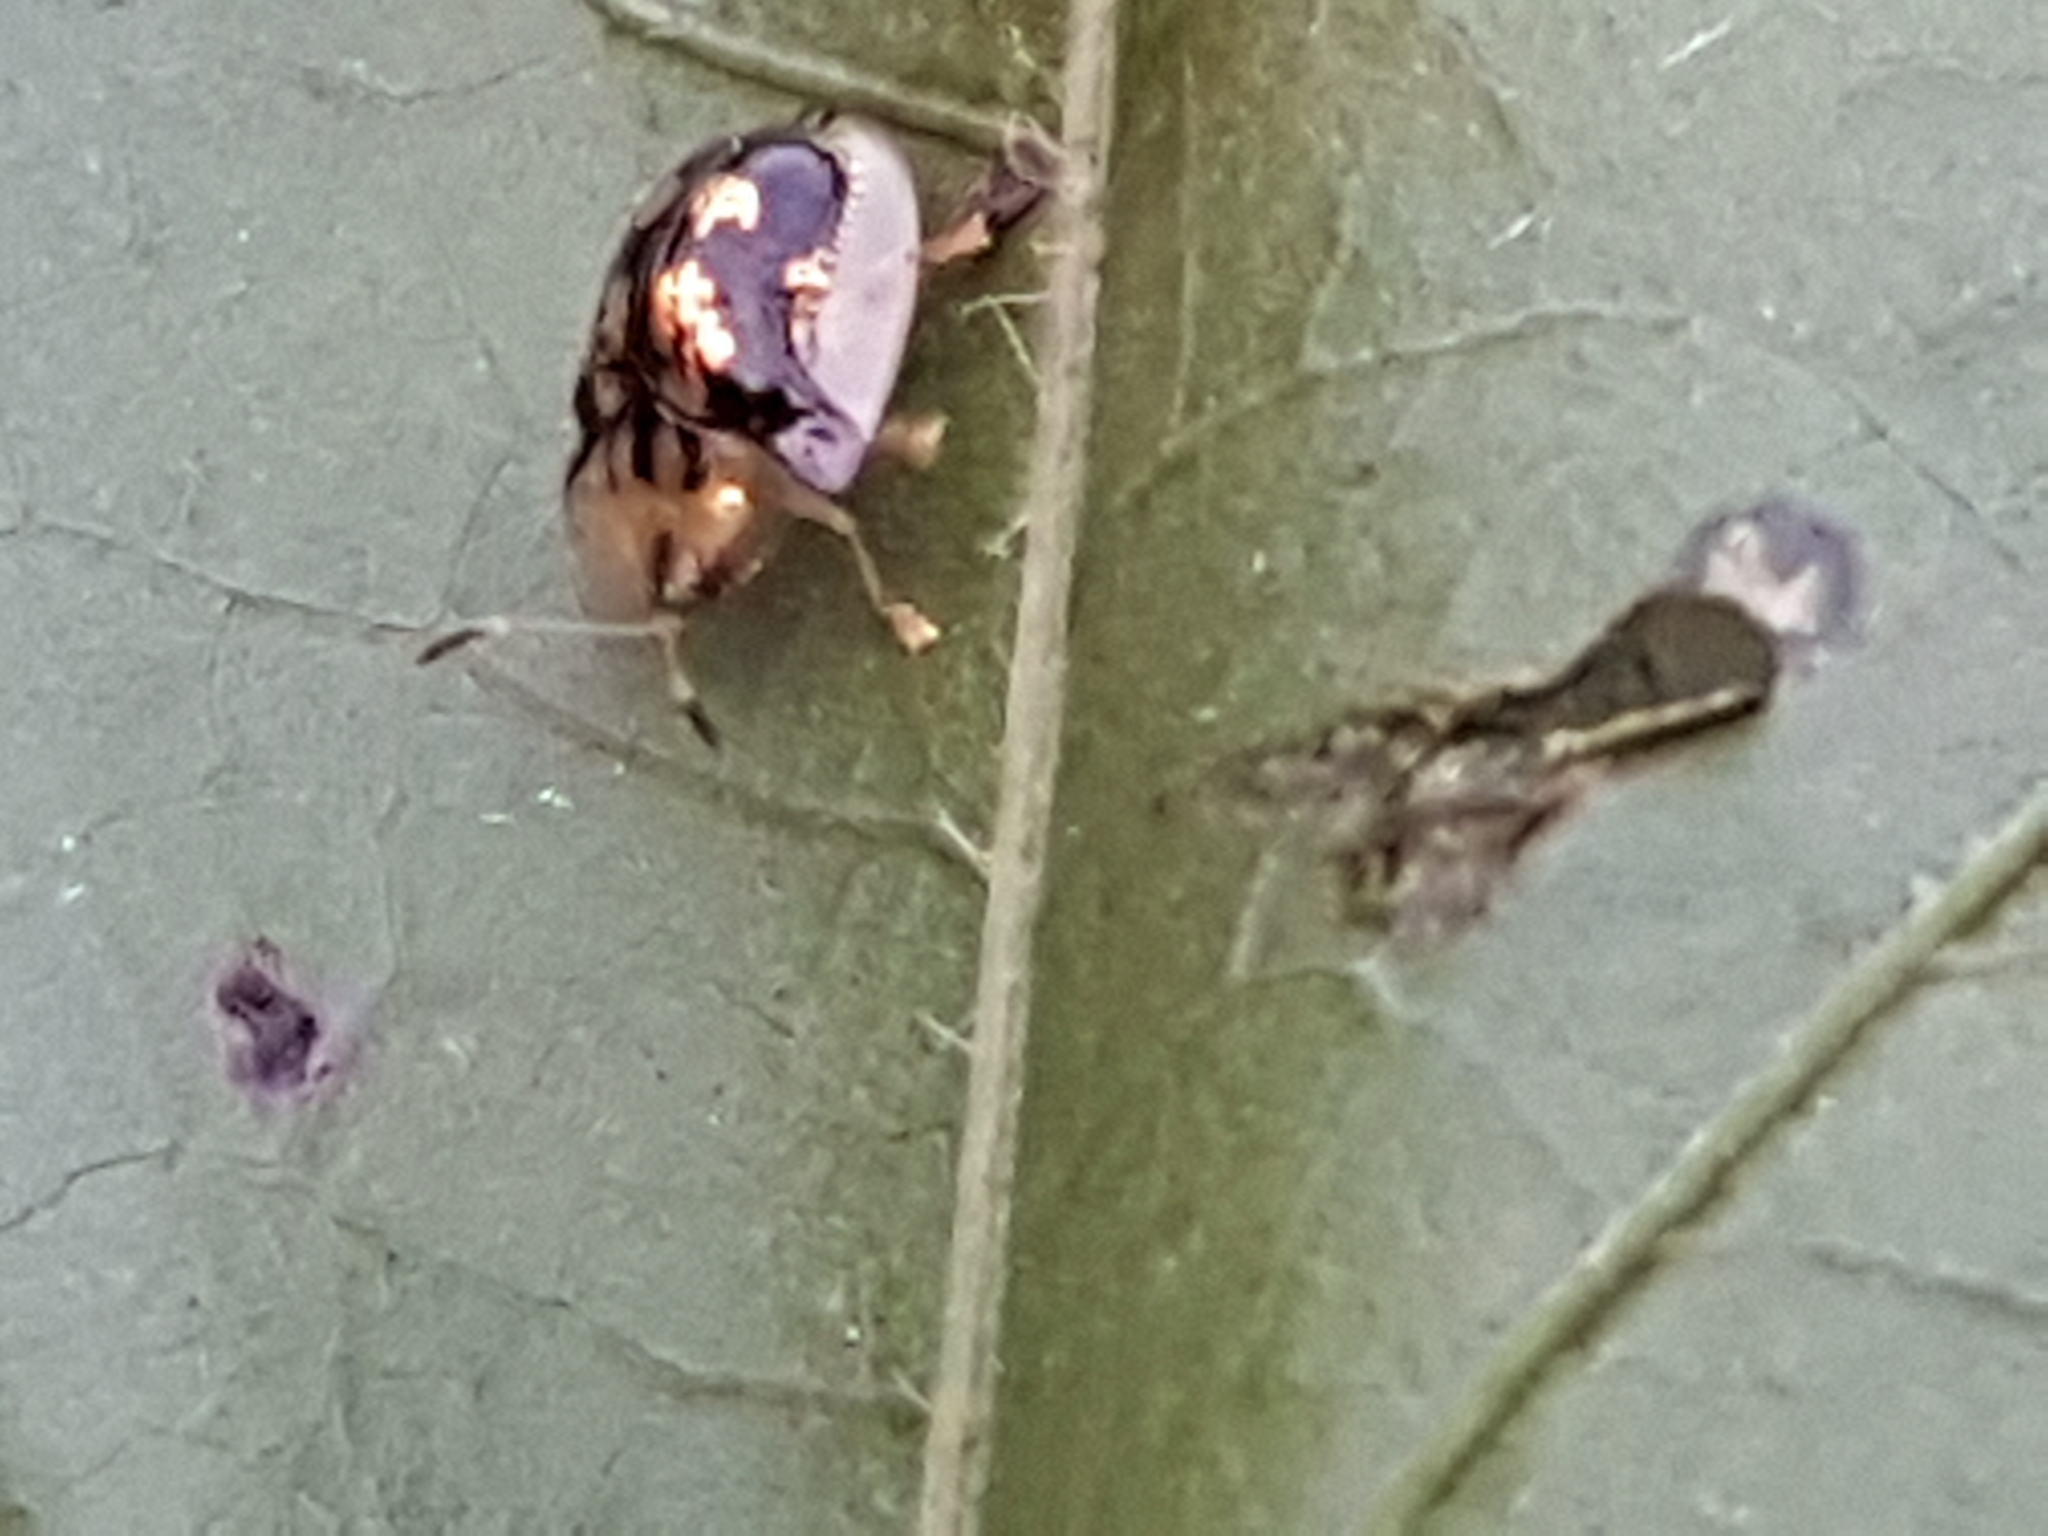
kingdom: Animalia
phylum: Arthropoda
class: Insecta
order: Coleoptera
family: Chrysomelidae
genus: Deloyala
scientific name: Deloyala guttata
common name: Mottled tortoise beetle
